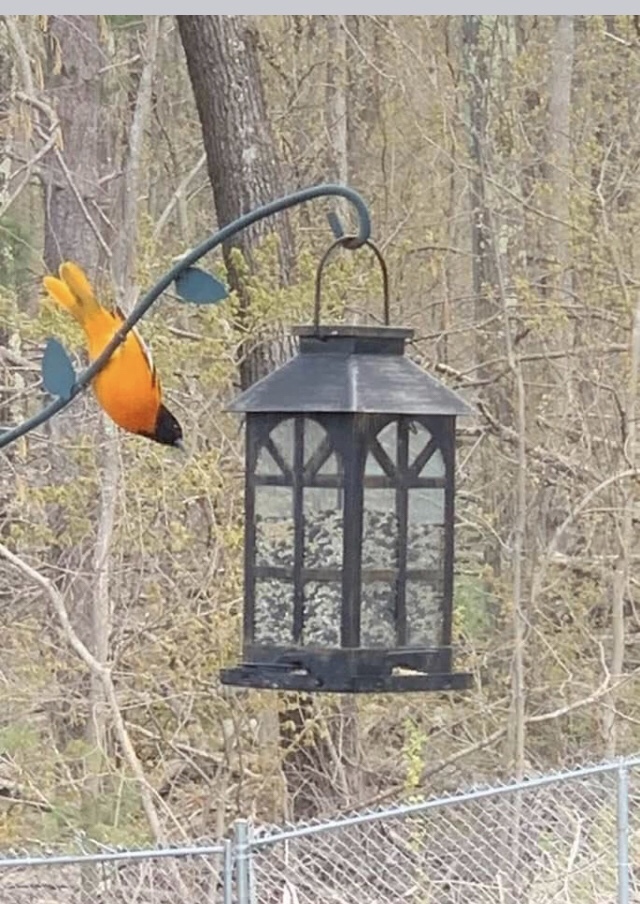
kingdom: Animalia
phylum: Chordata
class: Aves
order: Passeriformes
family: Icteridae
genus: Icterus
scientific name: Icterus galbula
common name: Baltimore oriole
